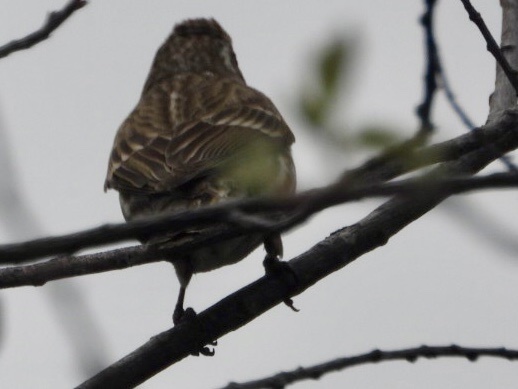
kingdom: Animalia
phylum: Chordata
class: Aves
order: Passeriformes
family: Fringillidae
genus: Haemorhous
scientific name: Haemorhous purpureus
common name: Purple finch
